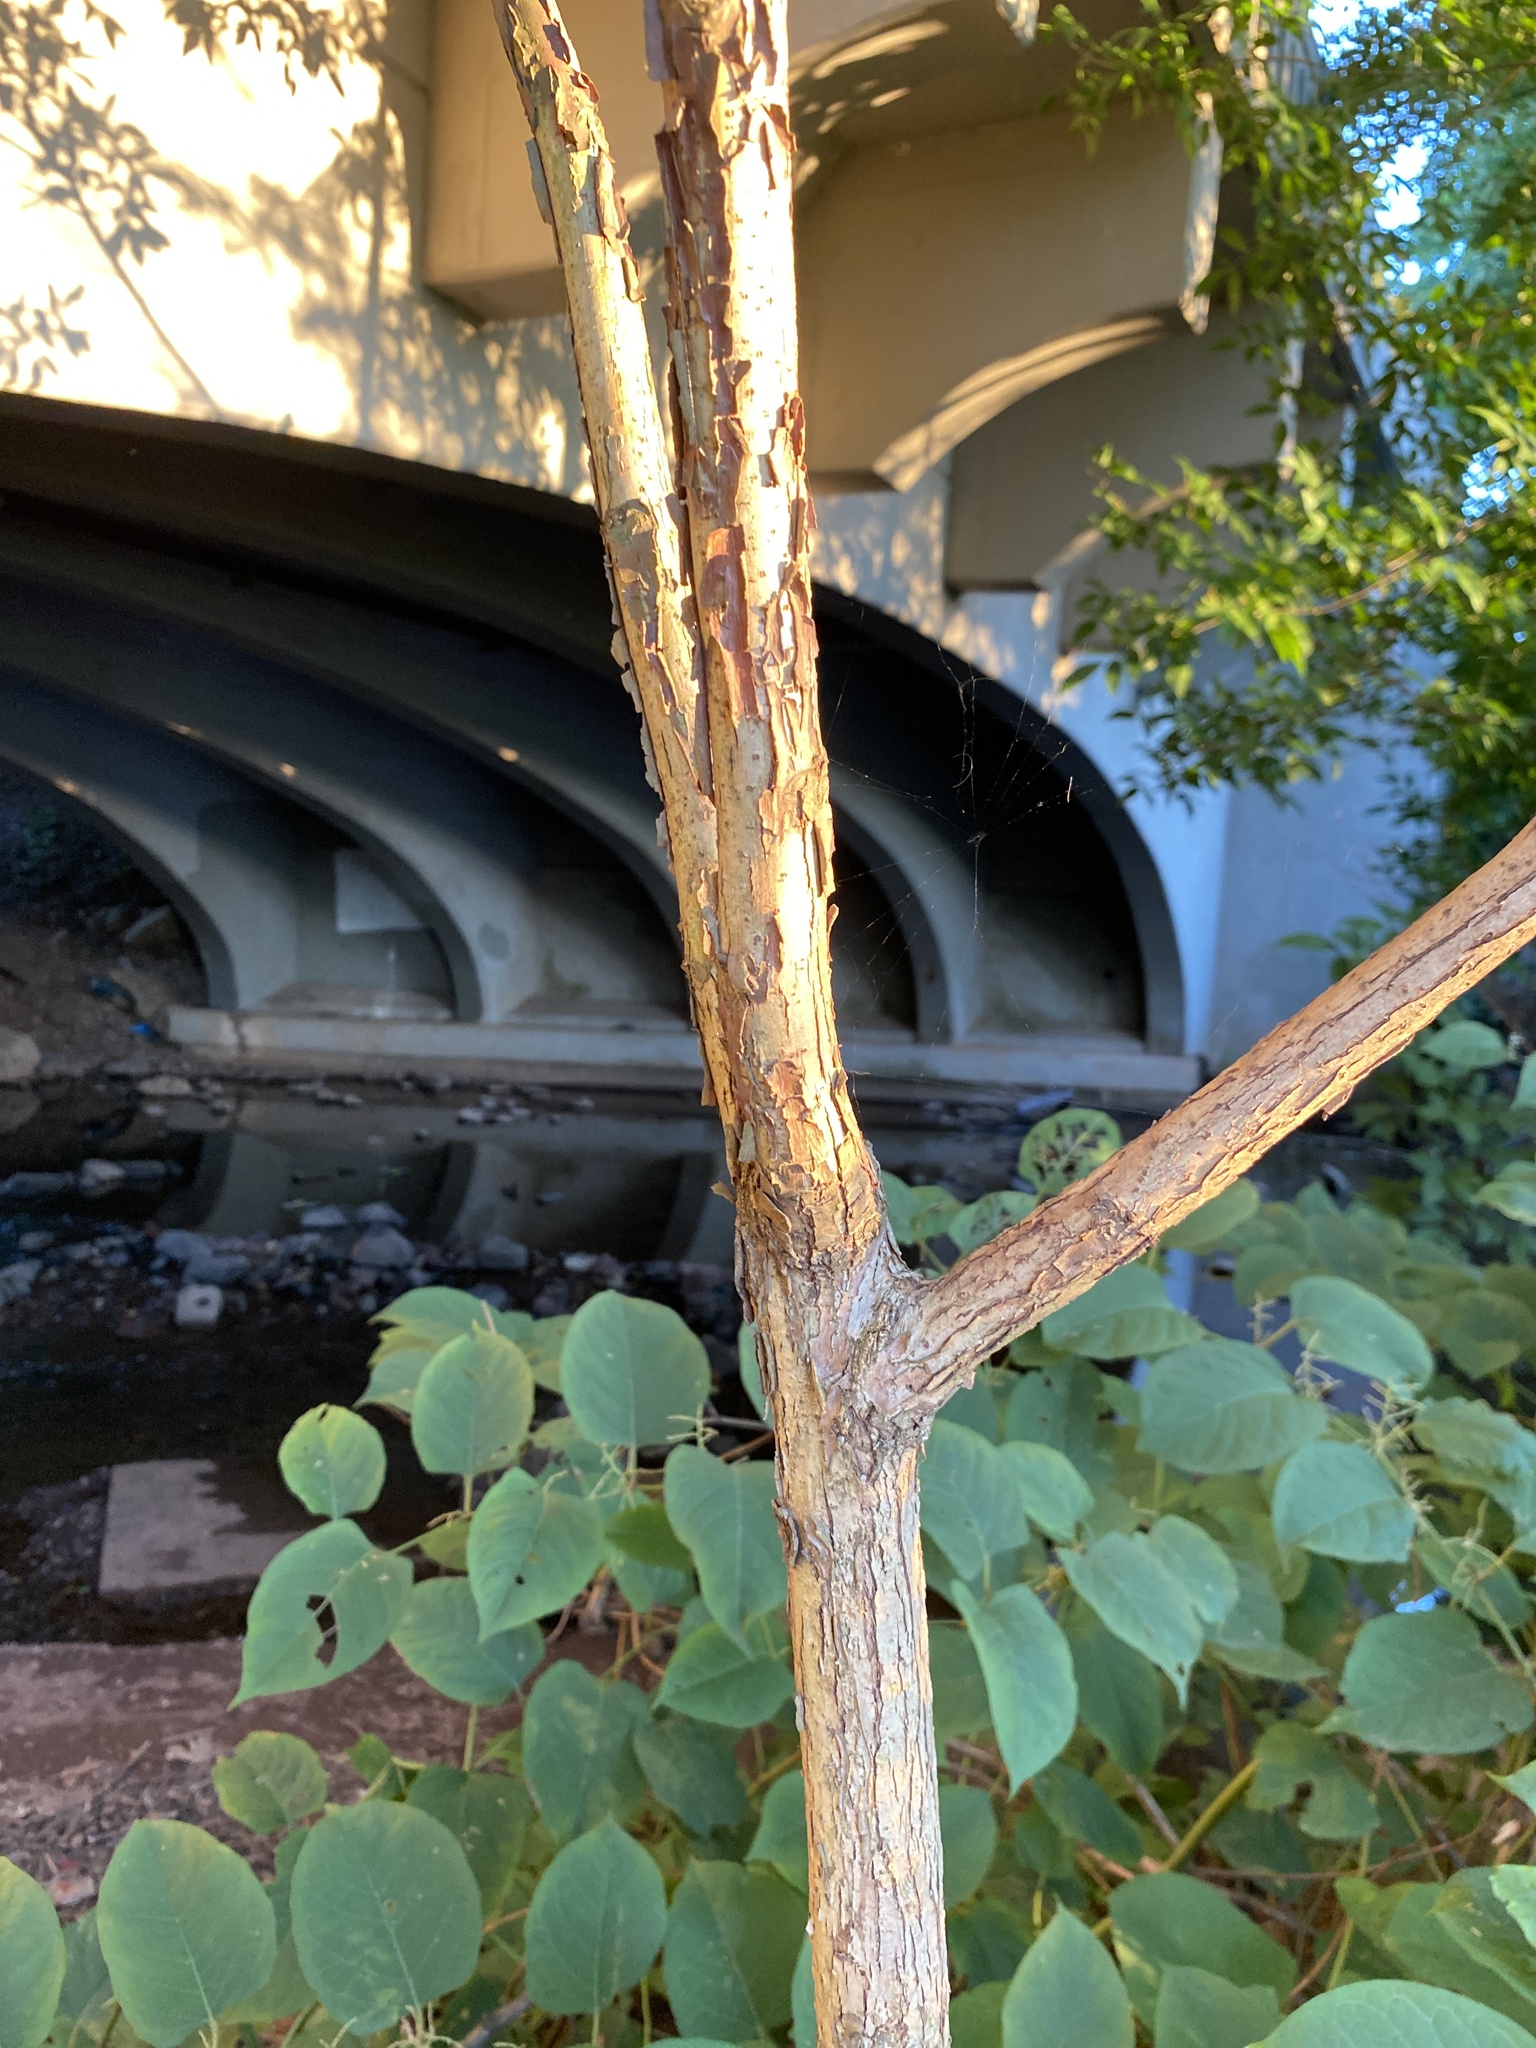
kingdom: Plantae
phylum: Tracheophyta
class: Magnoliopsida
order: Fagales
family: Juglandaceae
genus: Juglans
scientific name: Juglans nigra
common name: Black walnut
